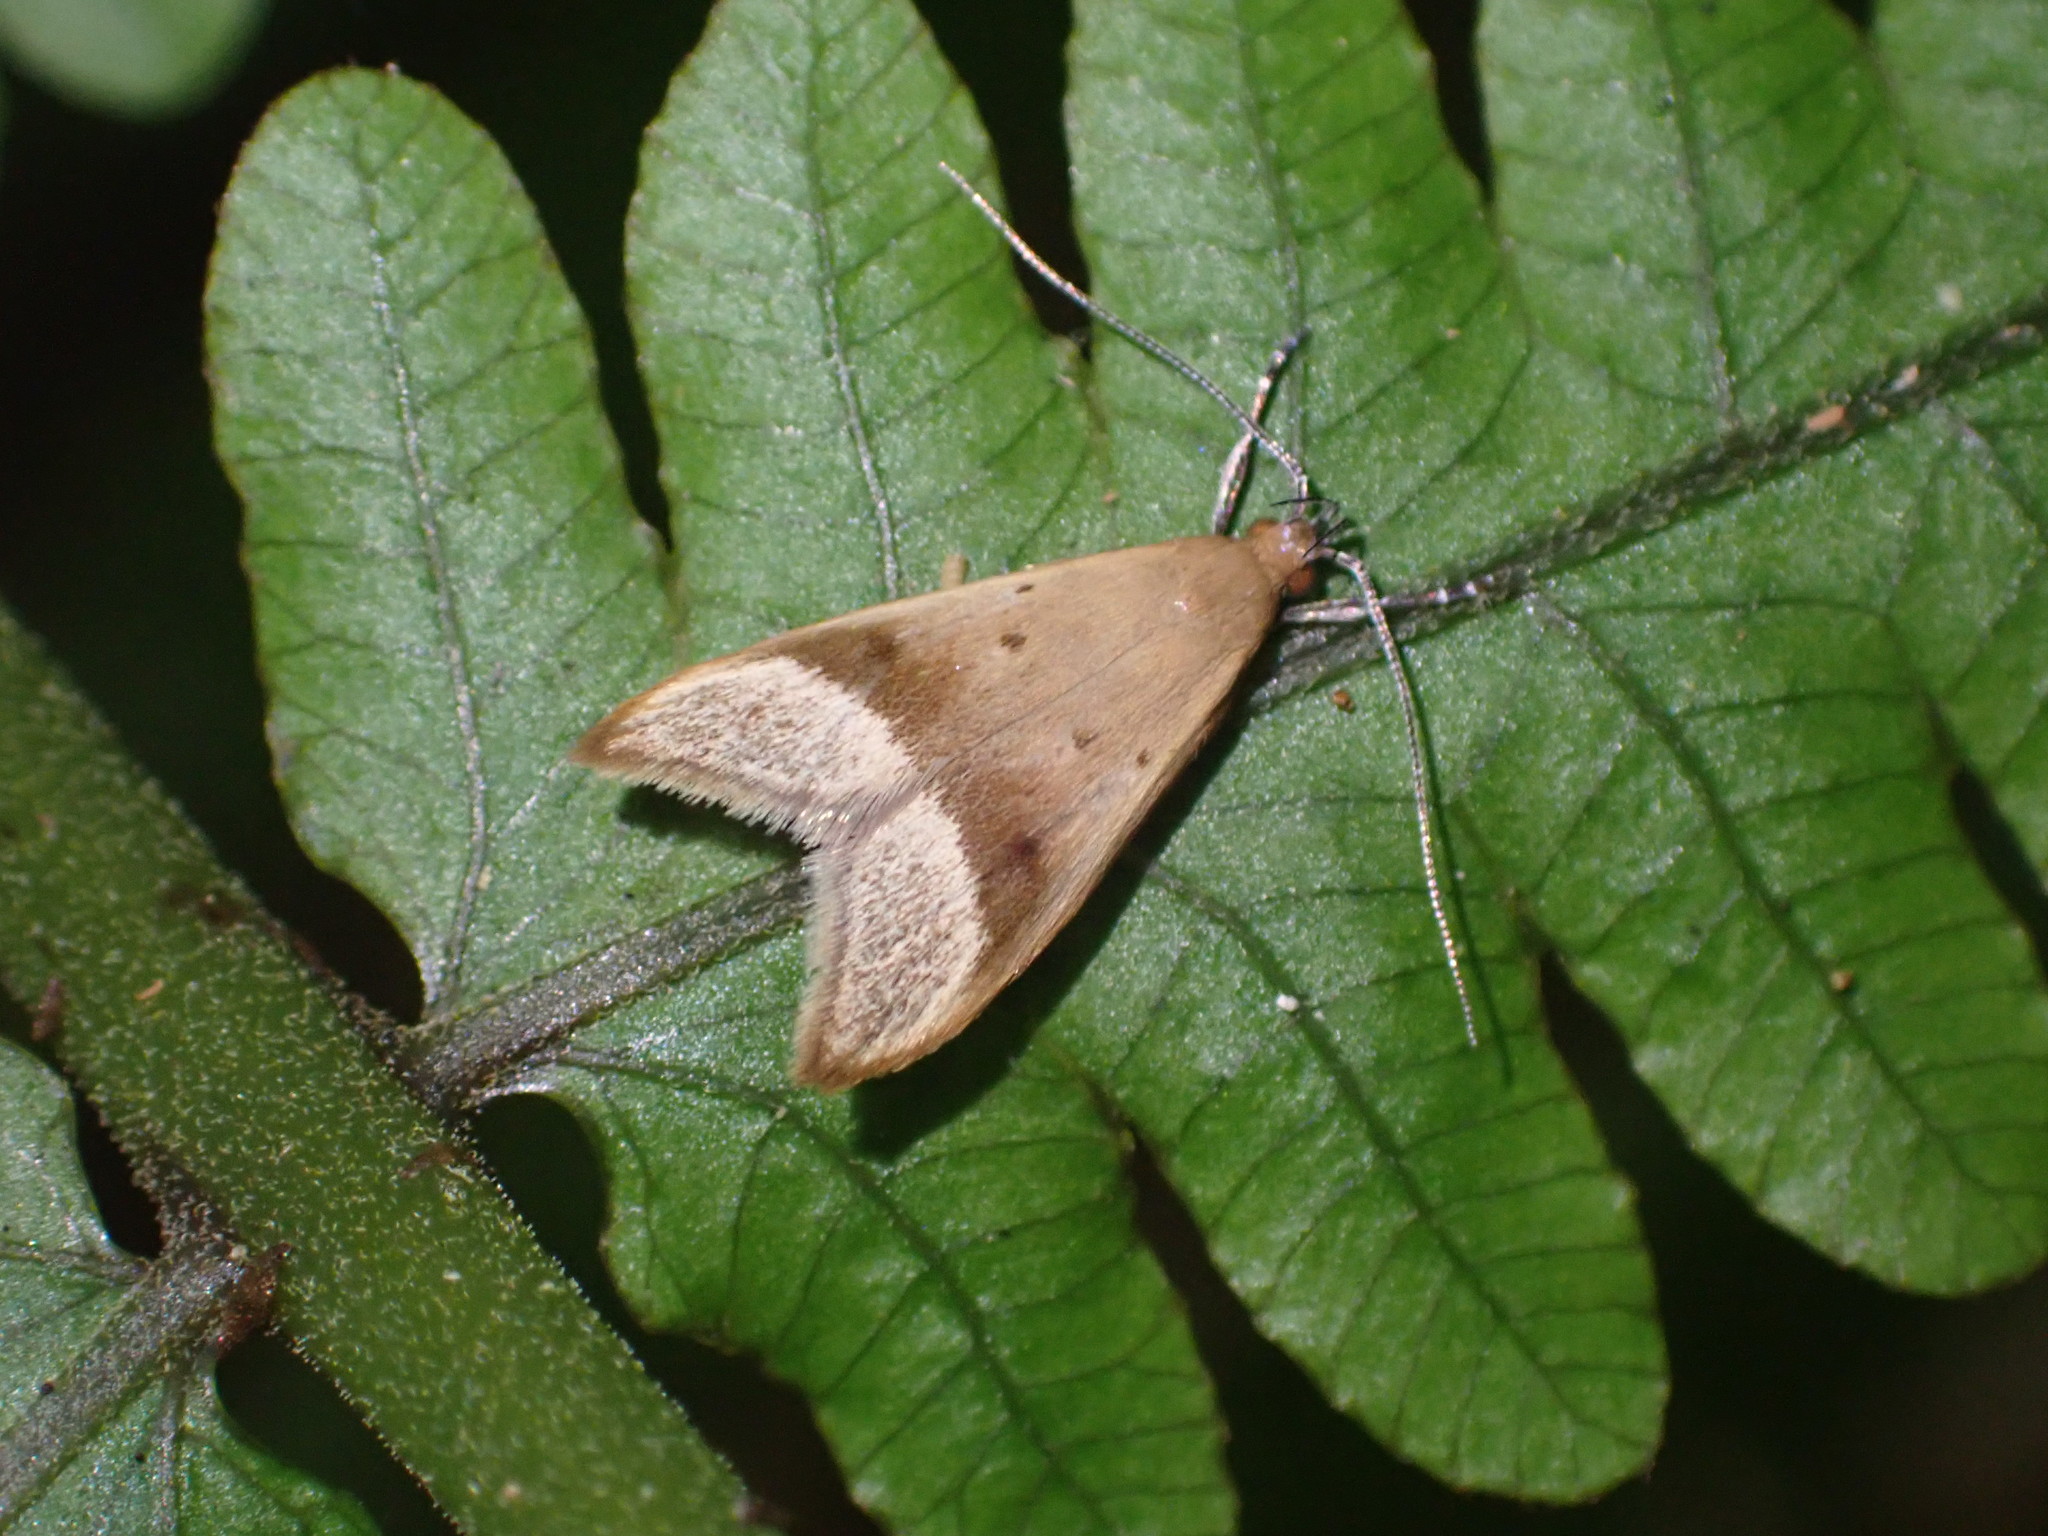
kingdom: Animalia
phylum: Arthropoda
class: Insecta
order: Lepidoptera
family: Oecophoridae
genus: Gymnobathra
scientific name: Gymnobathra hyetodes
